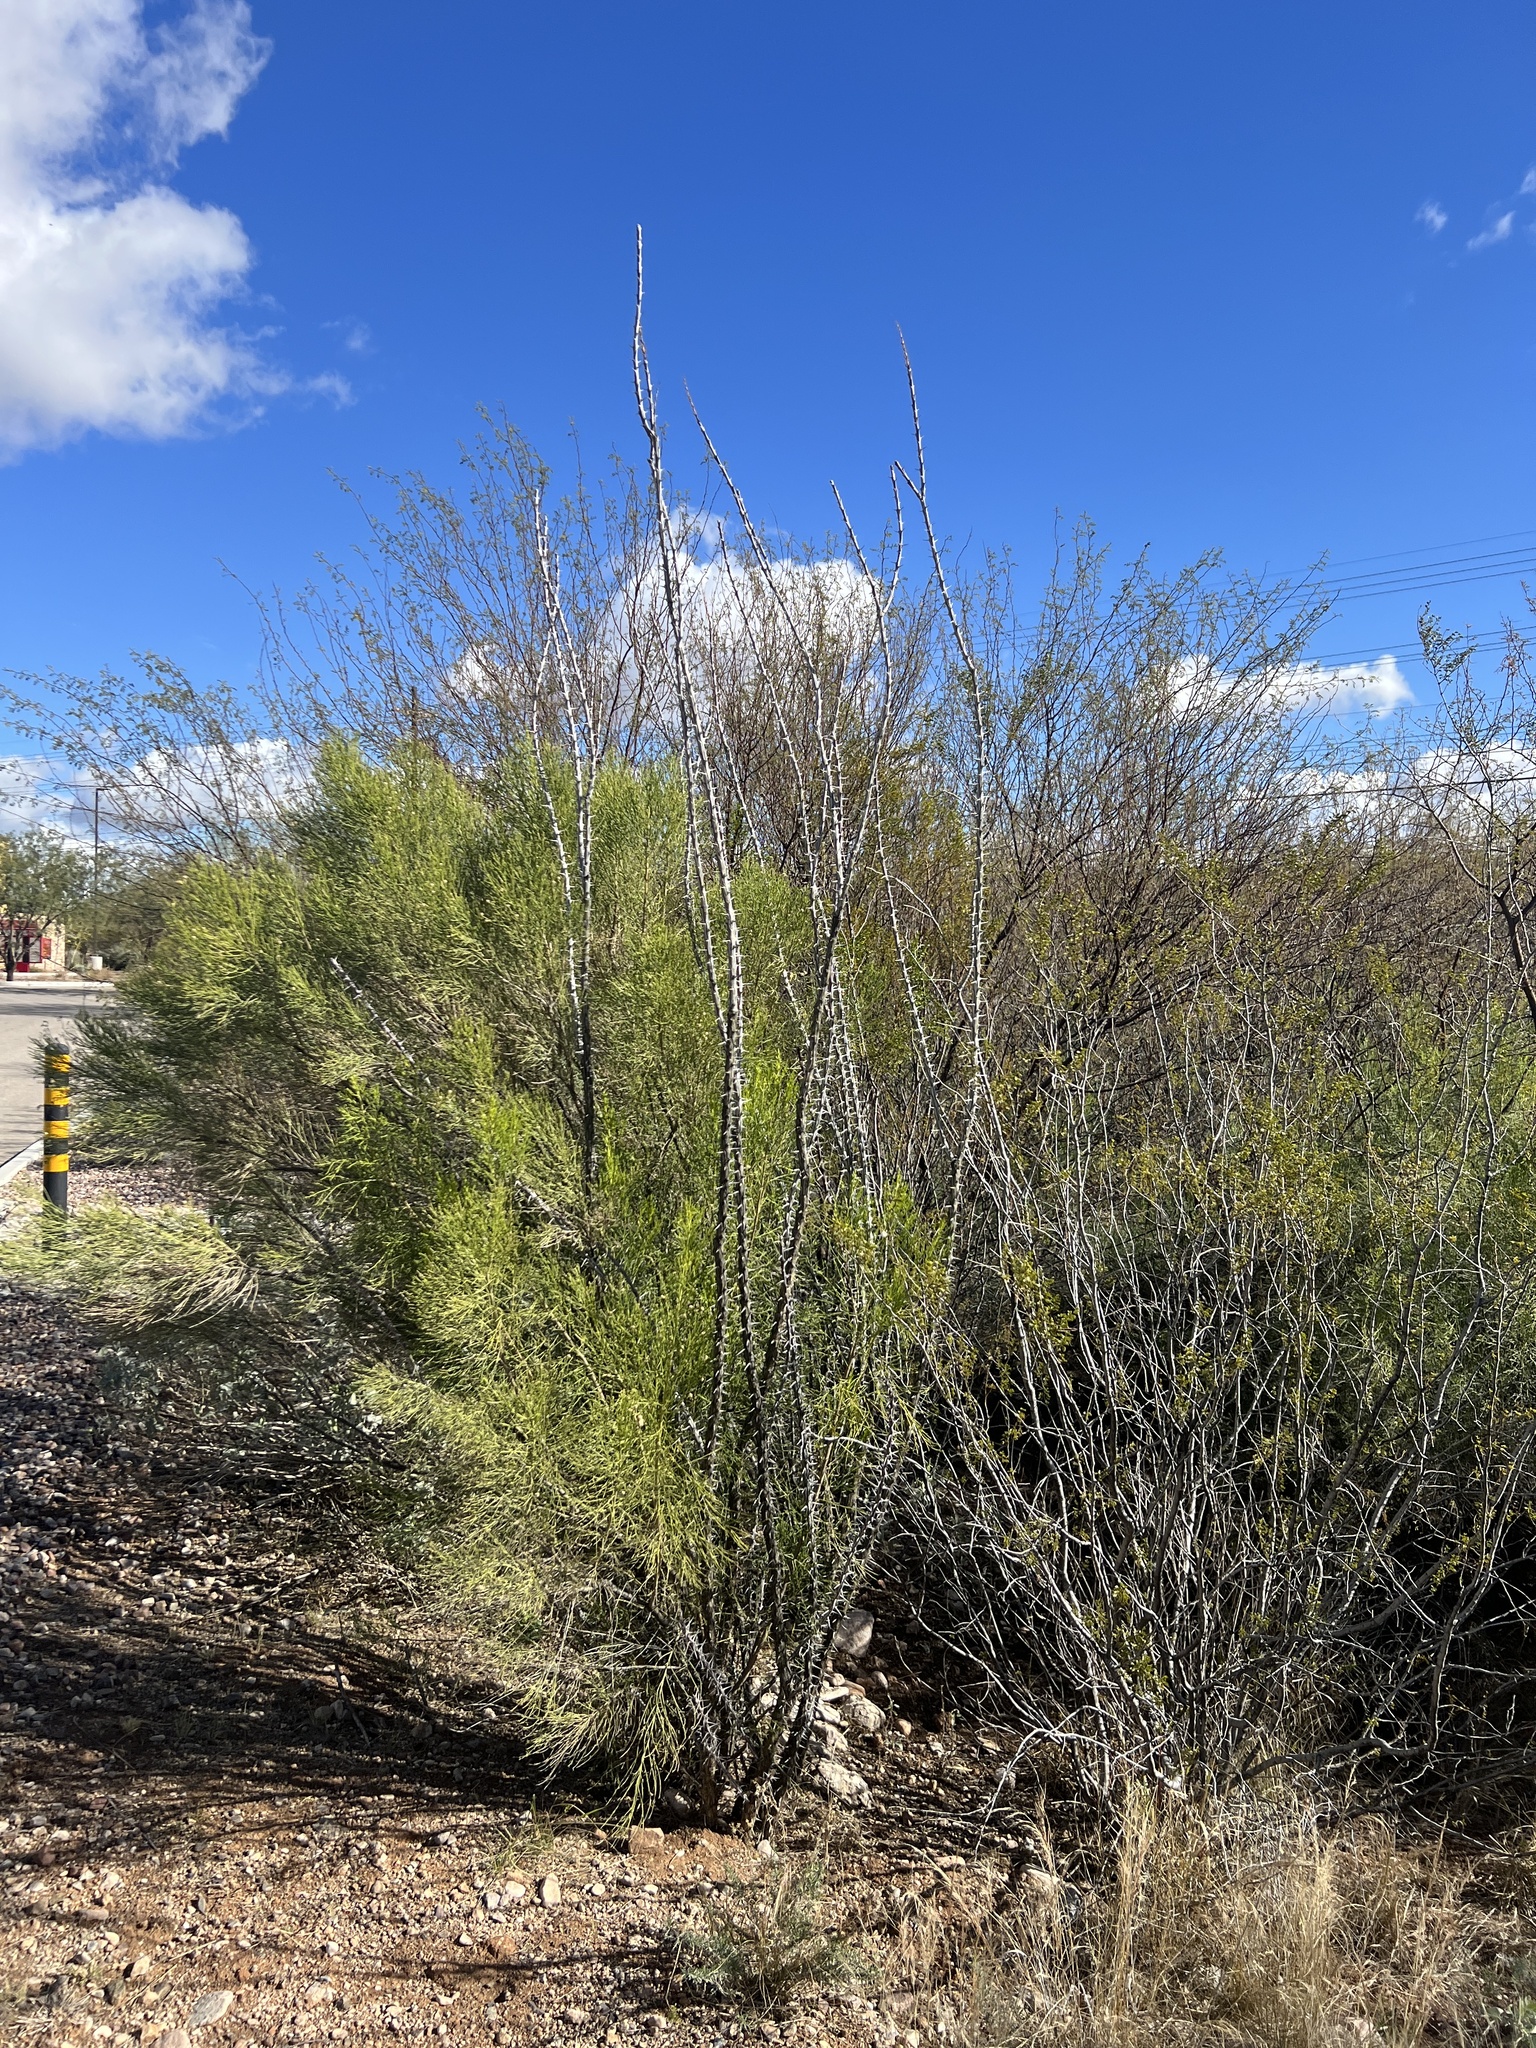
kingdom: Plantae
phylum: Tracheophyta
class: Magnoliopsida
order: Ericales
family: Fouquieriaceae
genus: Fouquieria
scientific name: Fouquieria splendens
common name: Vine-cactus
